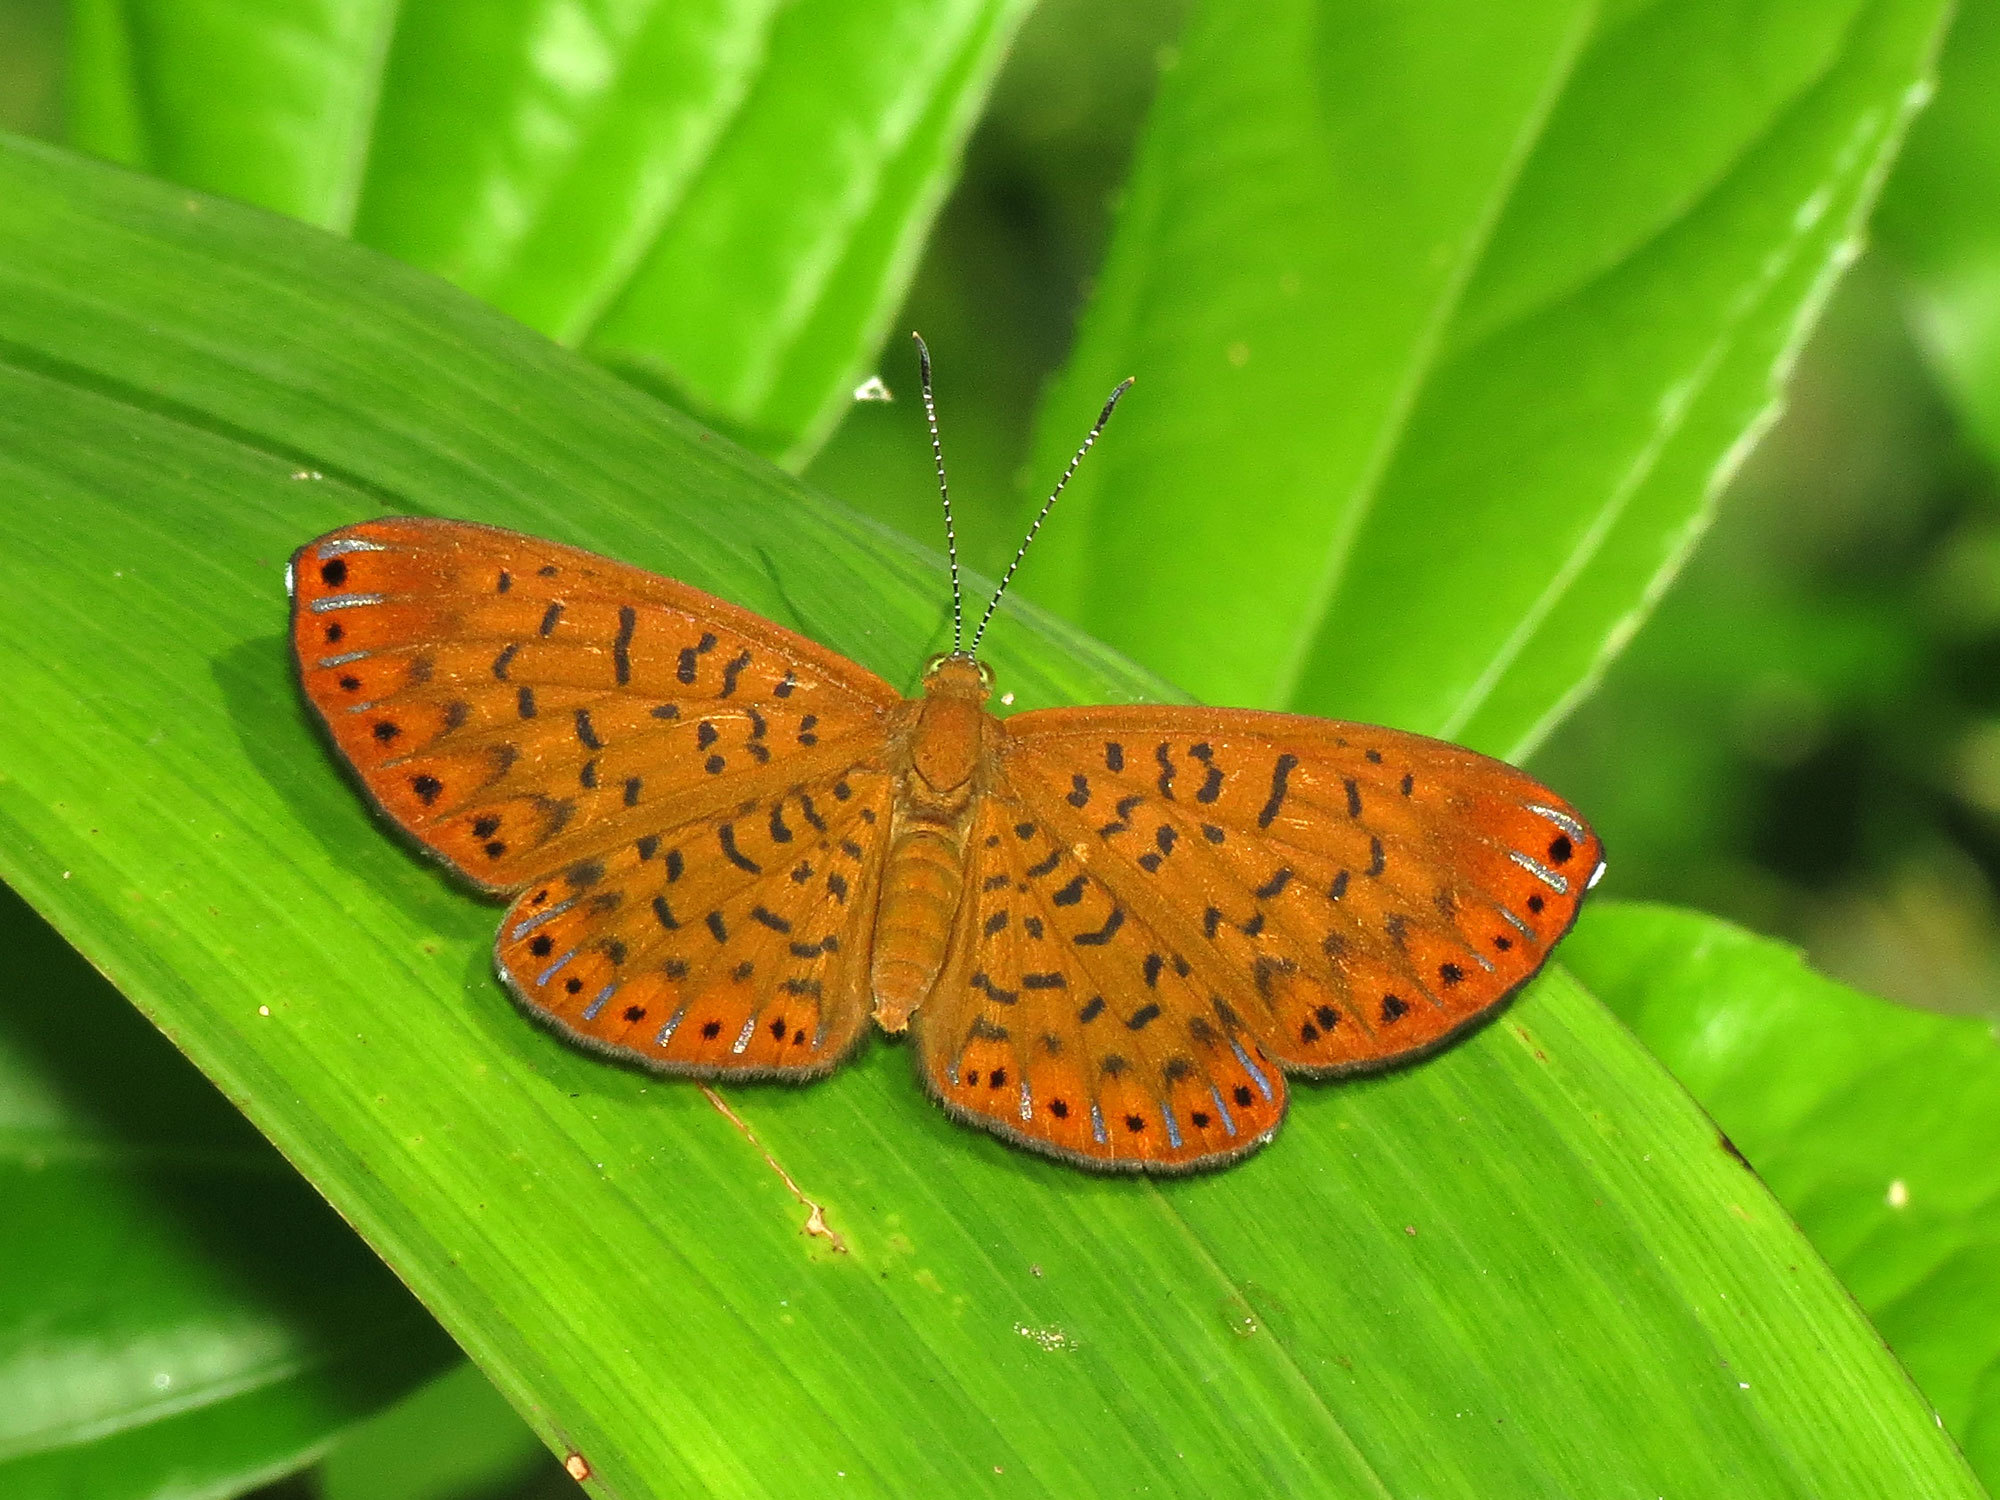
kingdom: Animalia
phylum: Arthropoda
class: Insecta
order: Lepidoptera
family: Riodinidae
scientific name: Riodinidae
